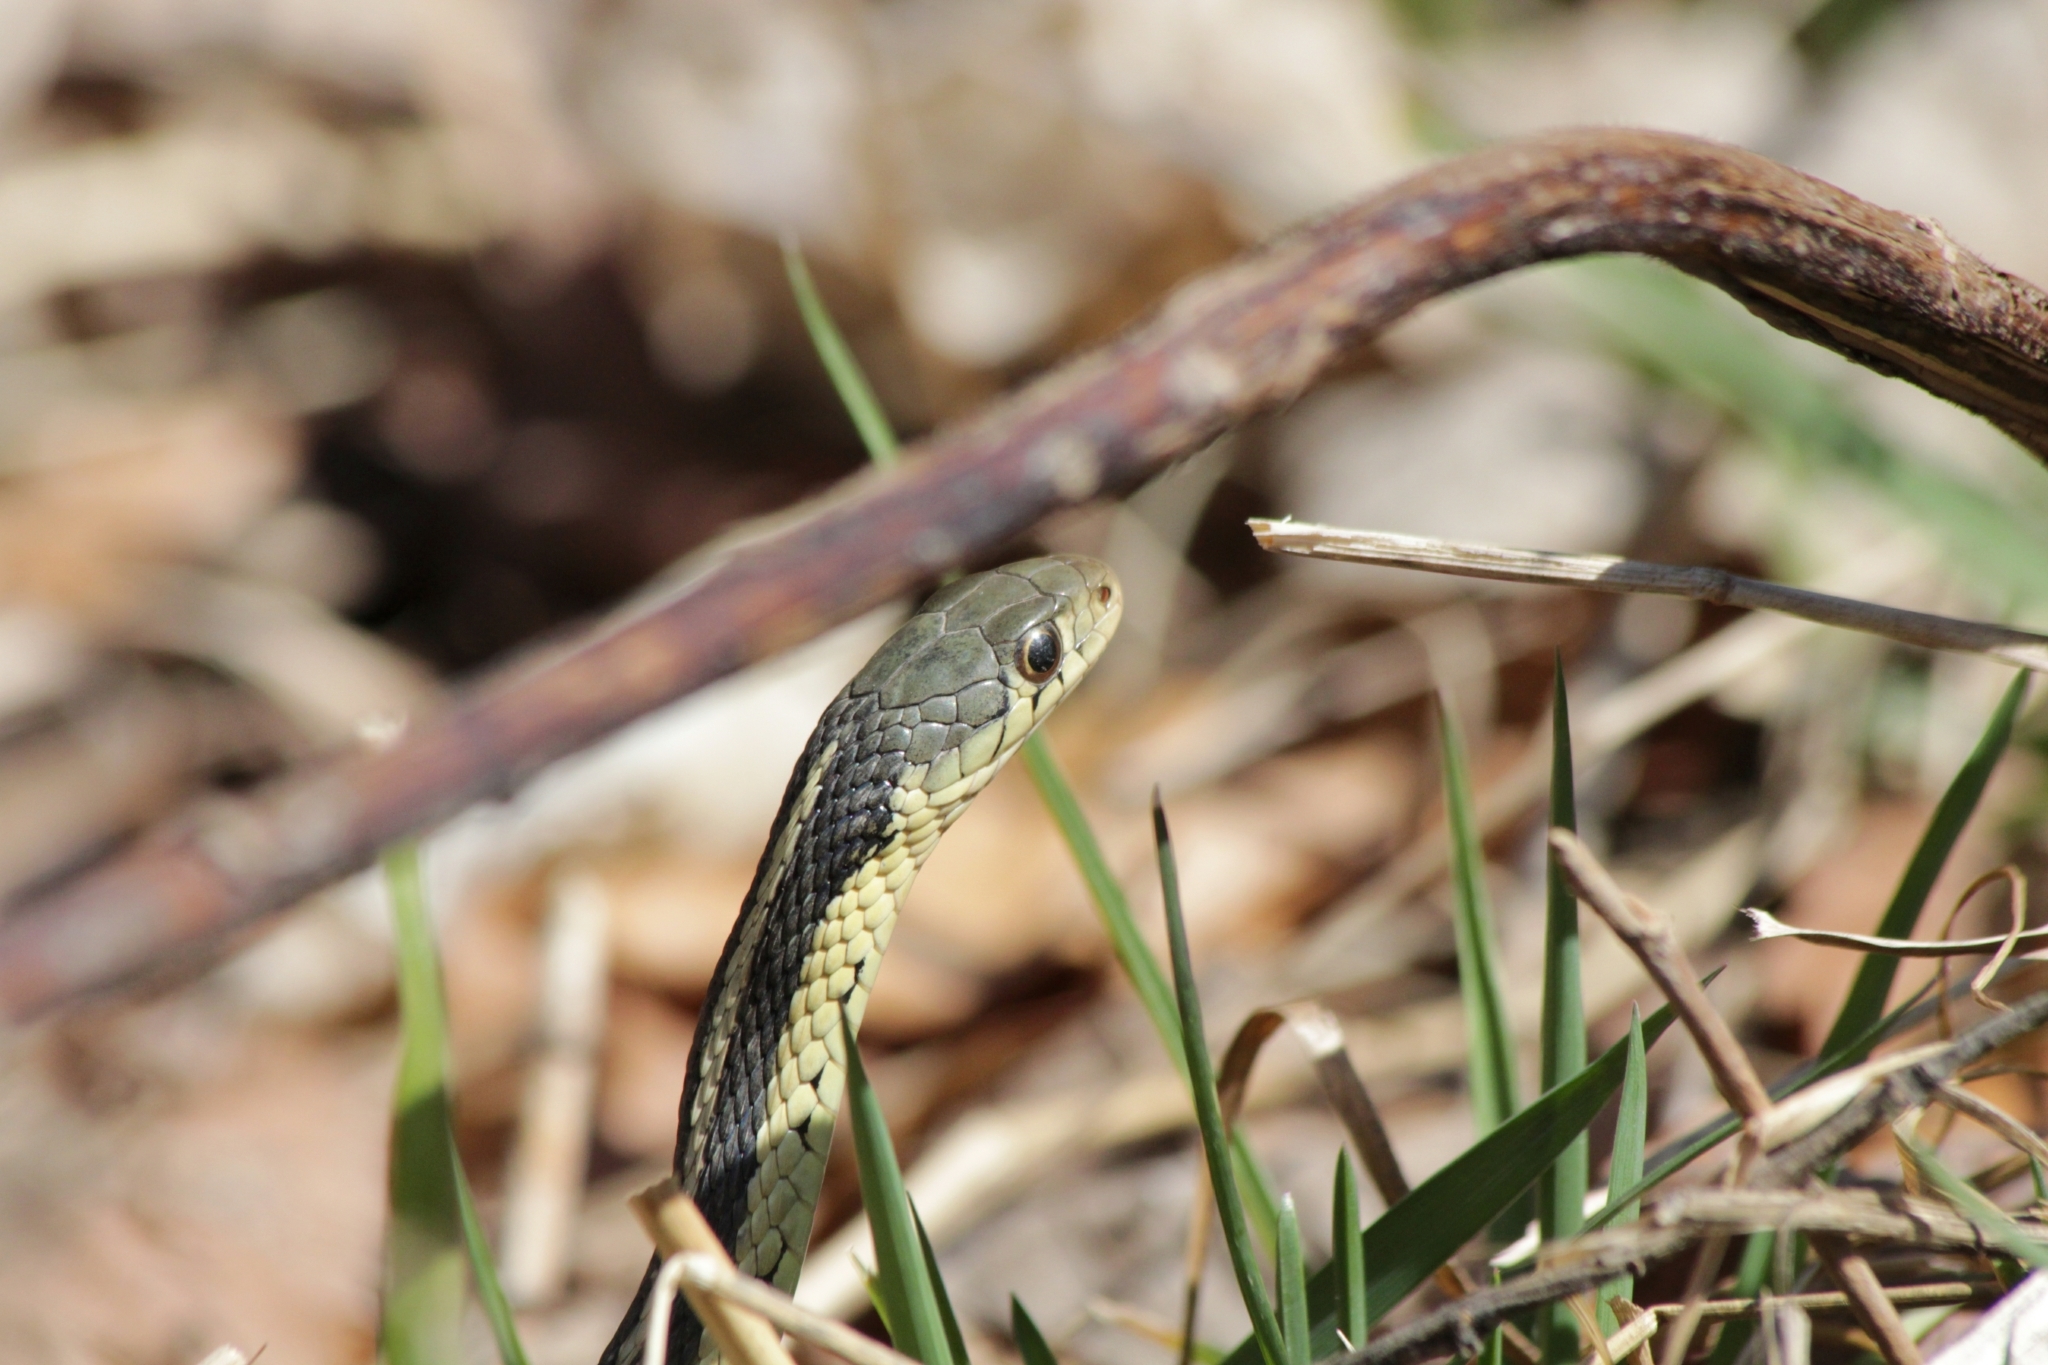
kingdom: Animalia
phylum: Chordata
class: Squamata
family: Colubridae
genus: Thamnophis
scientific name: Thamnophis sirtalis
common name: Common garter snake
